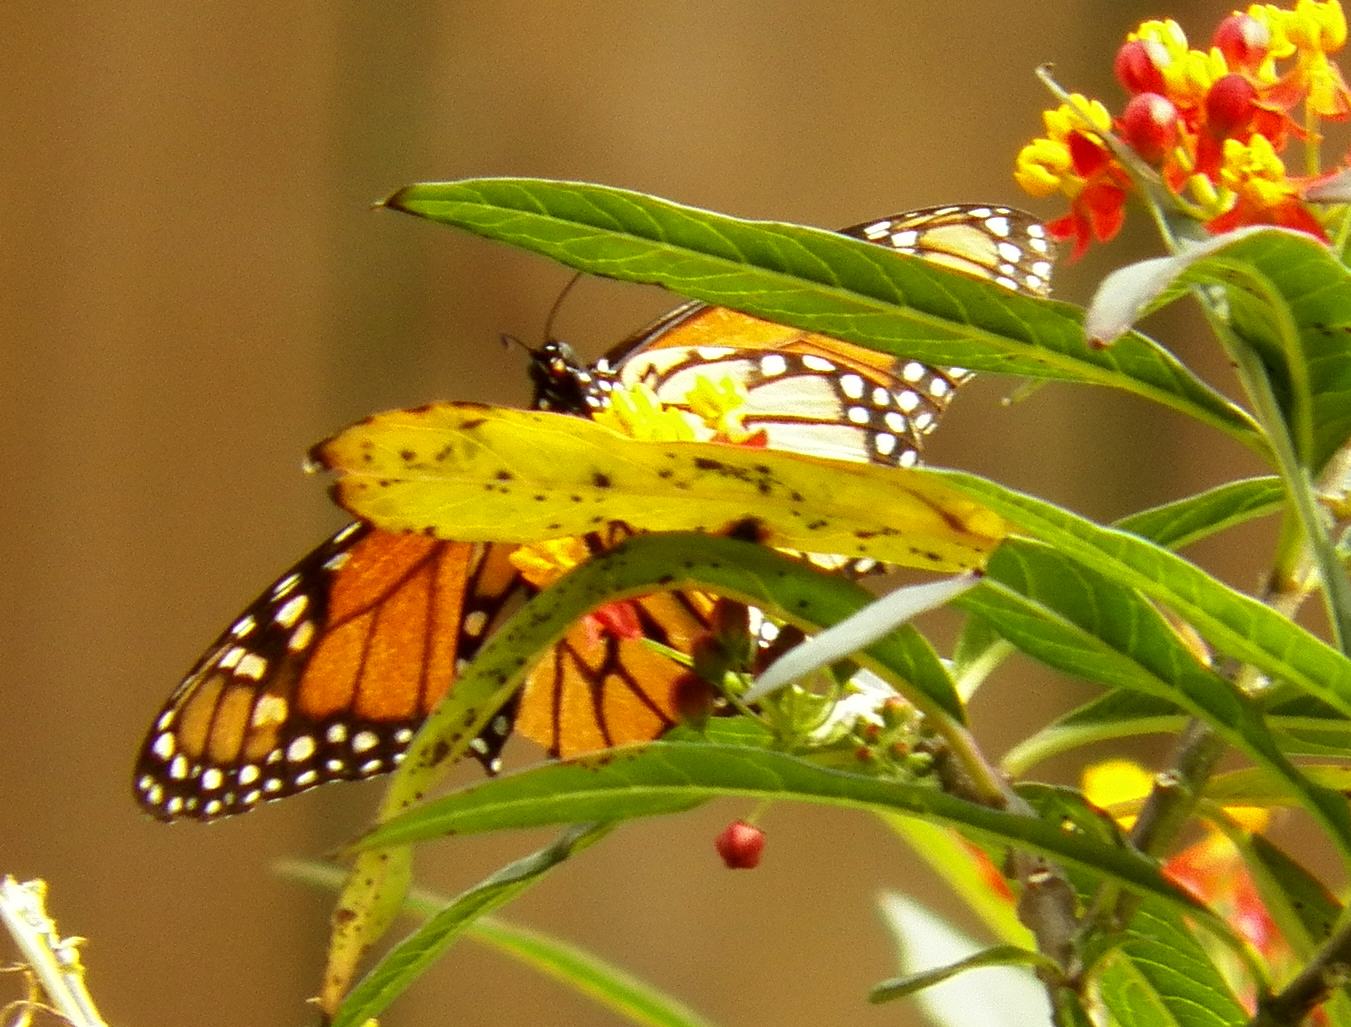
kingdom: Animalia
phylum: Arthropoda
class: Insecta
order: Lepidoptera
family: Nymphalidae
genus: Danaus
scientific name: Danaus plexippus
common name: Monarch
